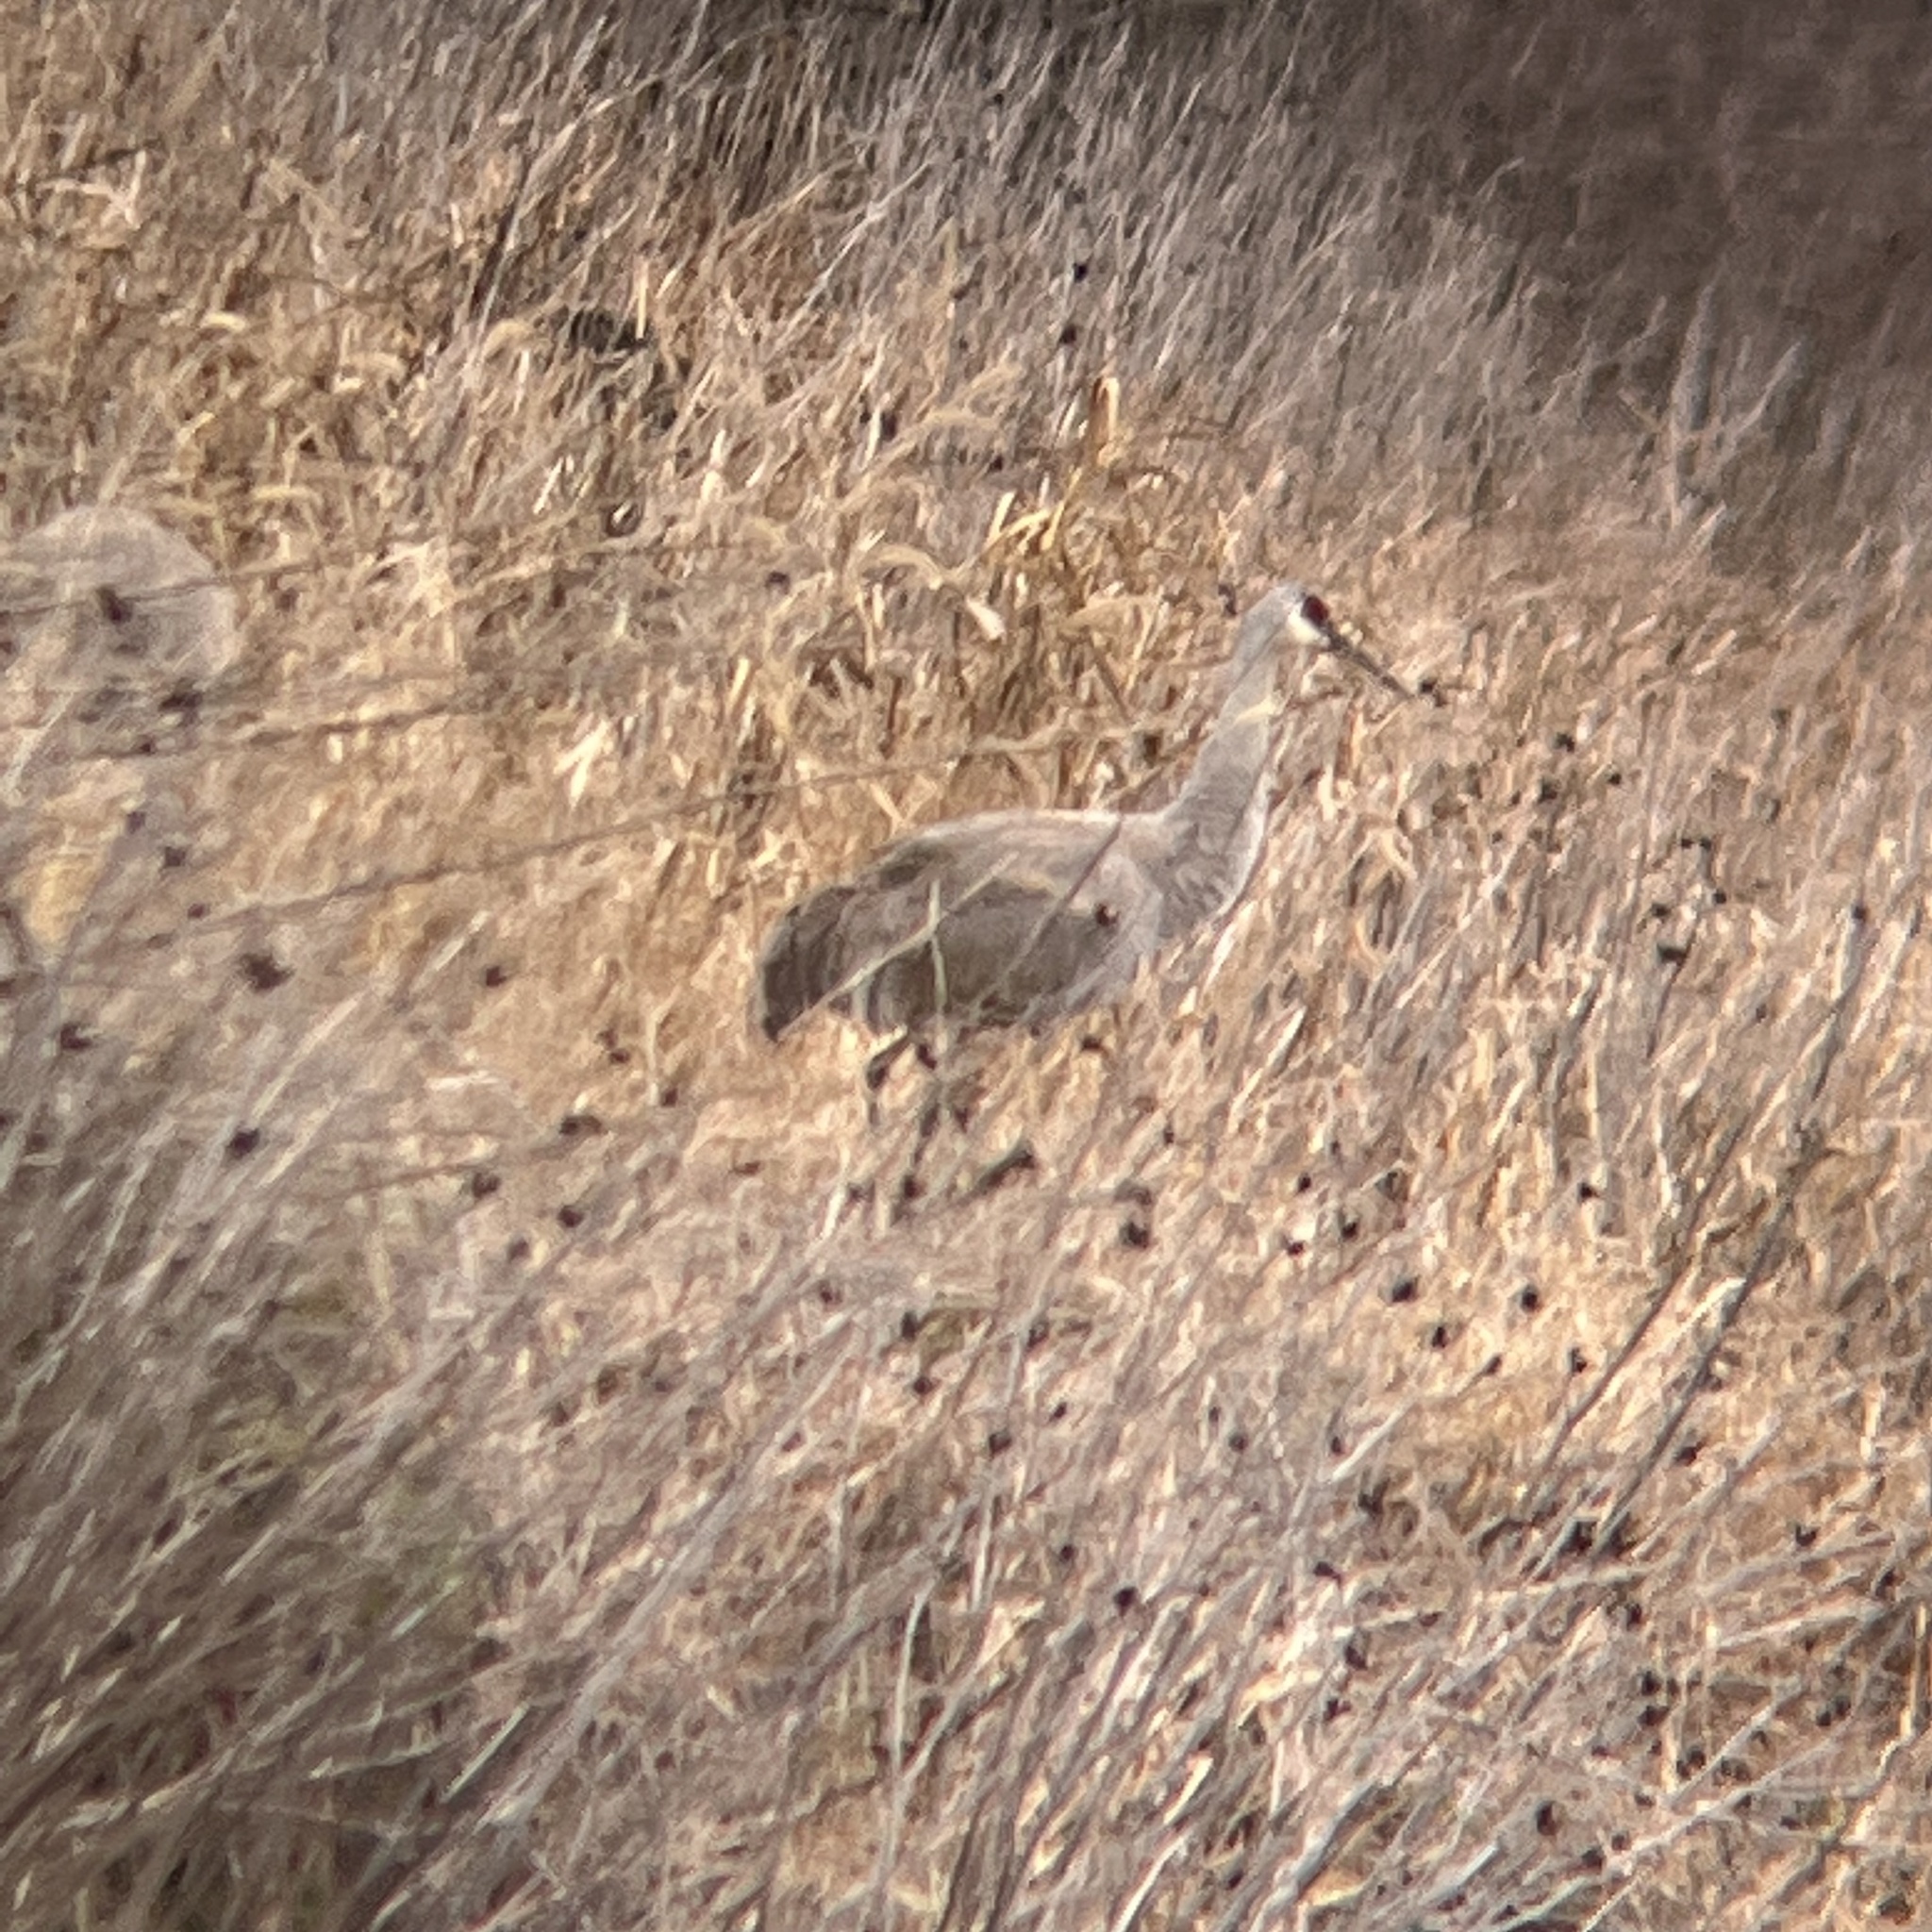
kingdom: Animalia
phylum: Chordata
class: Aves
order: Gruiformes
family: Gruidae
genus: Grus
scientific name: Grus canadensis
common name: Sandhill crane
